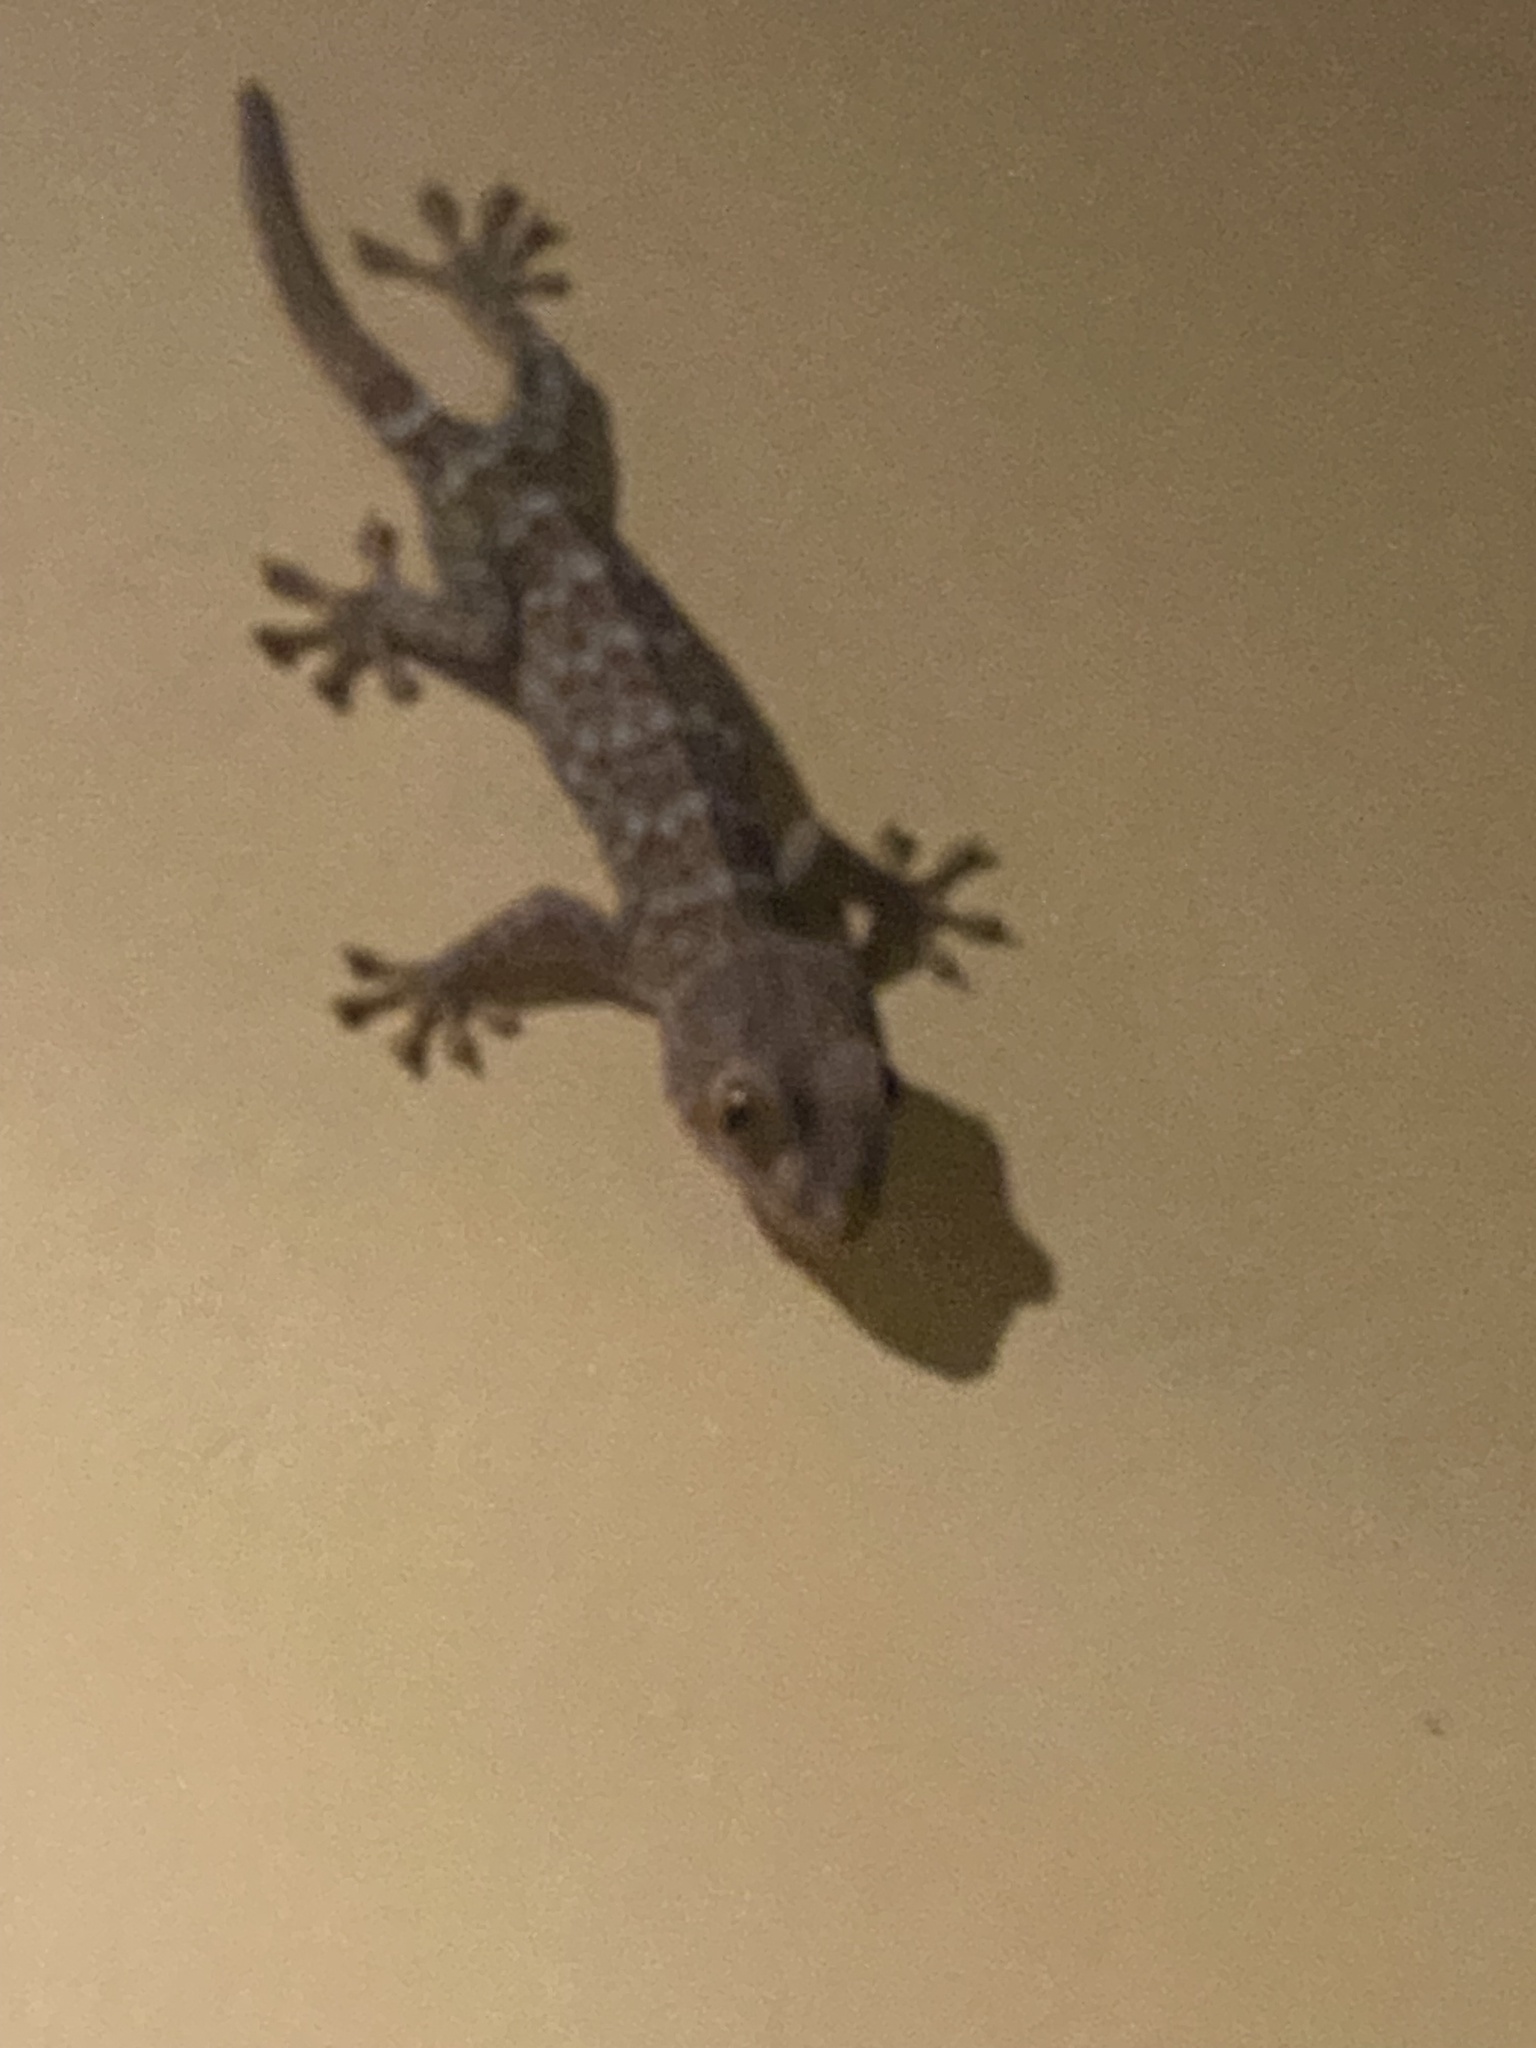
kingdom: Animalia
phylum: Chordata
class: Squamata
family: Gekkonidae
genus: Gekko
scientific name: Gekko gecko
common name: Tokay gecko
